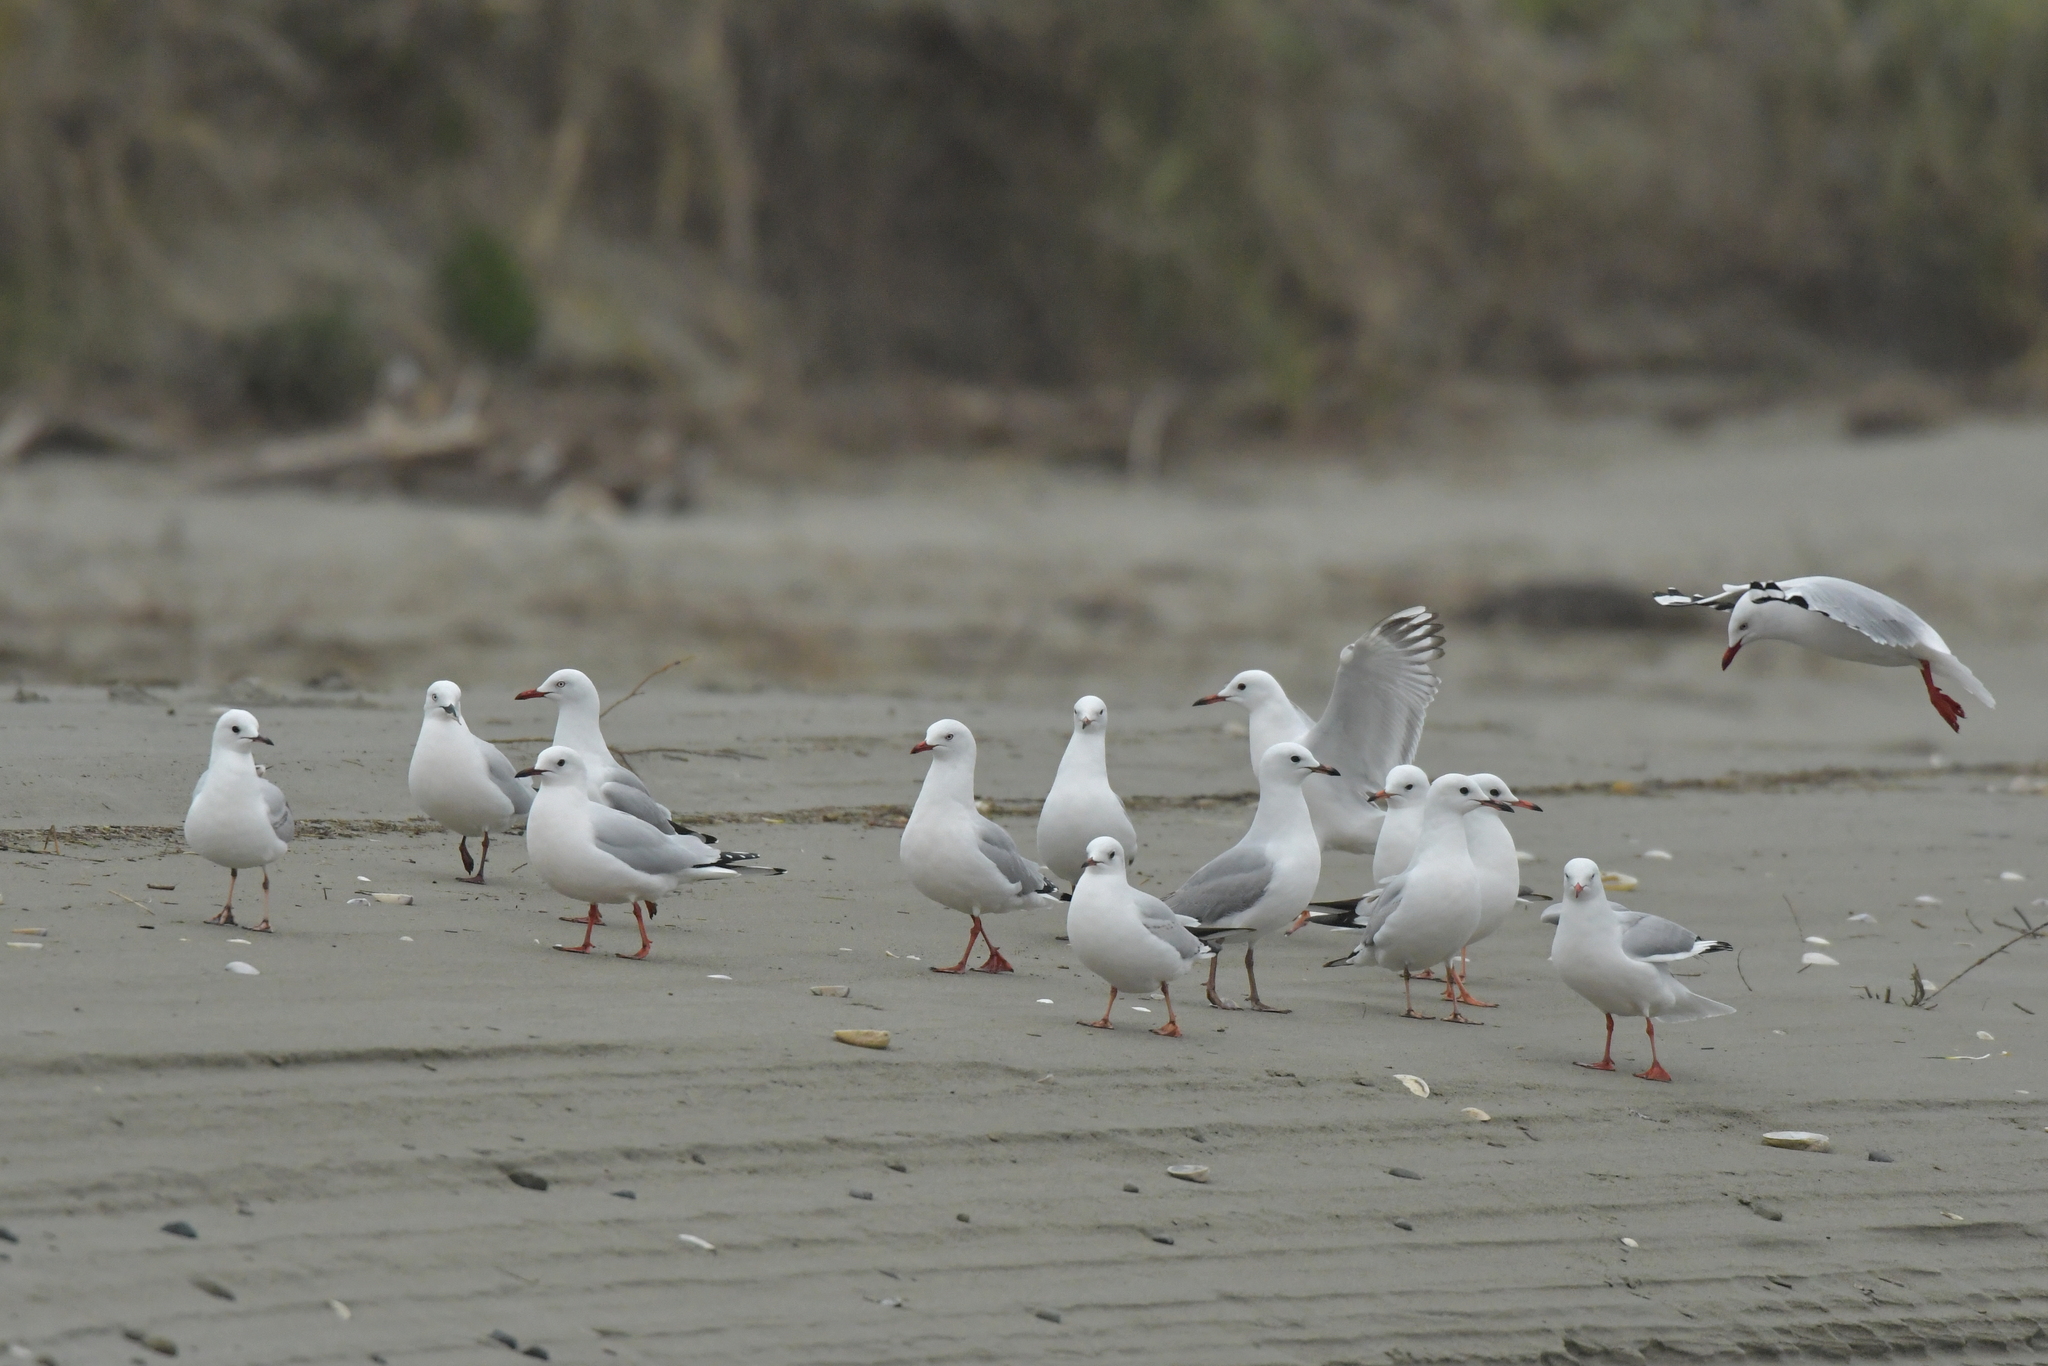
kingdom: Animalia
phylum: Chordata
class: Aves
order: Charadriiformes
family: Laridae
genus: Chroicocephalus
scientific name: Chroicocephalus novaehollandiae
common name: Silver gull
